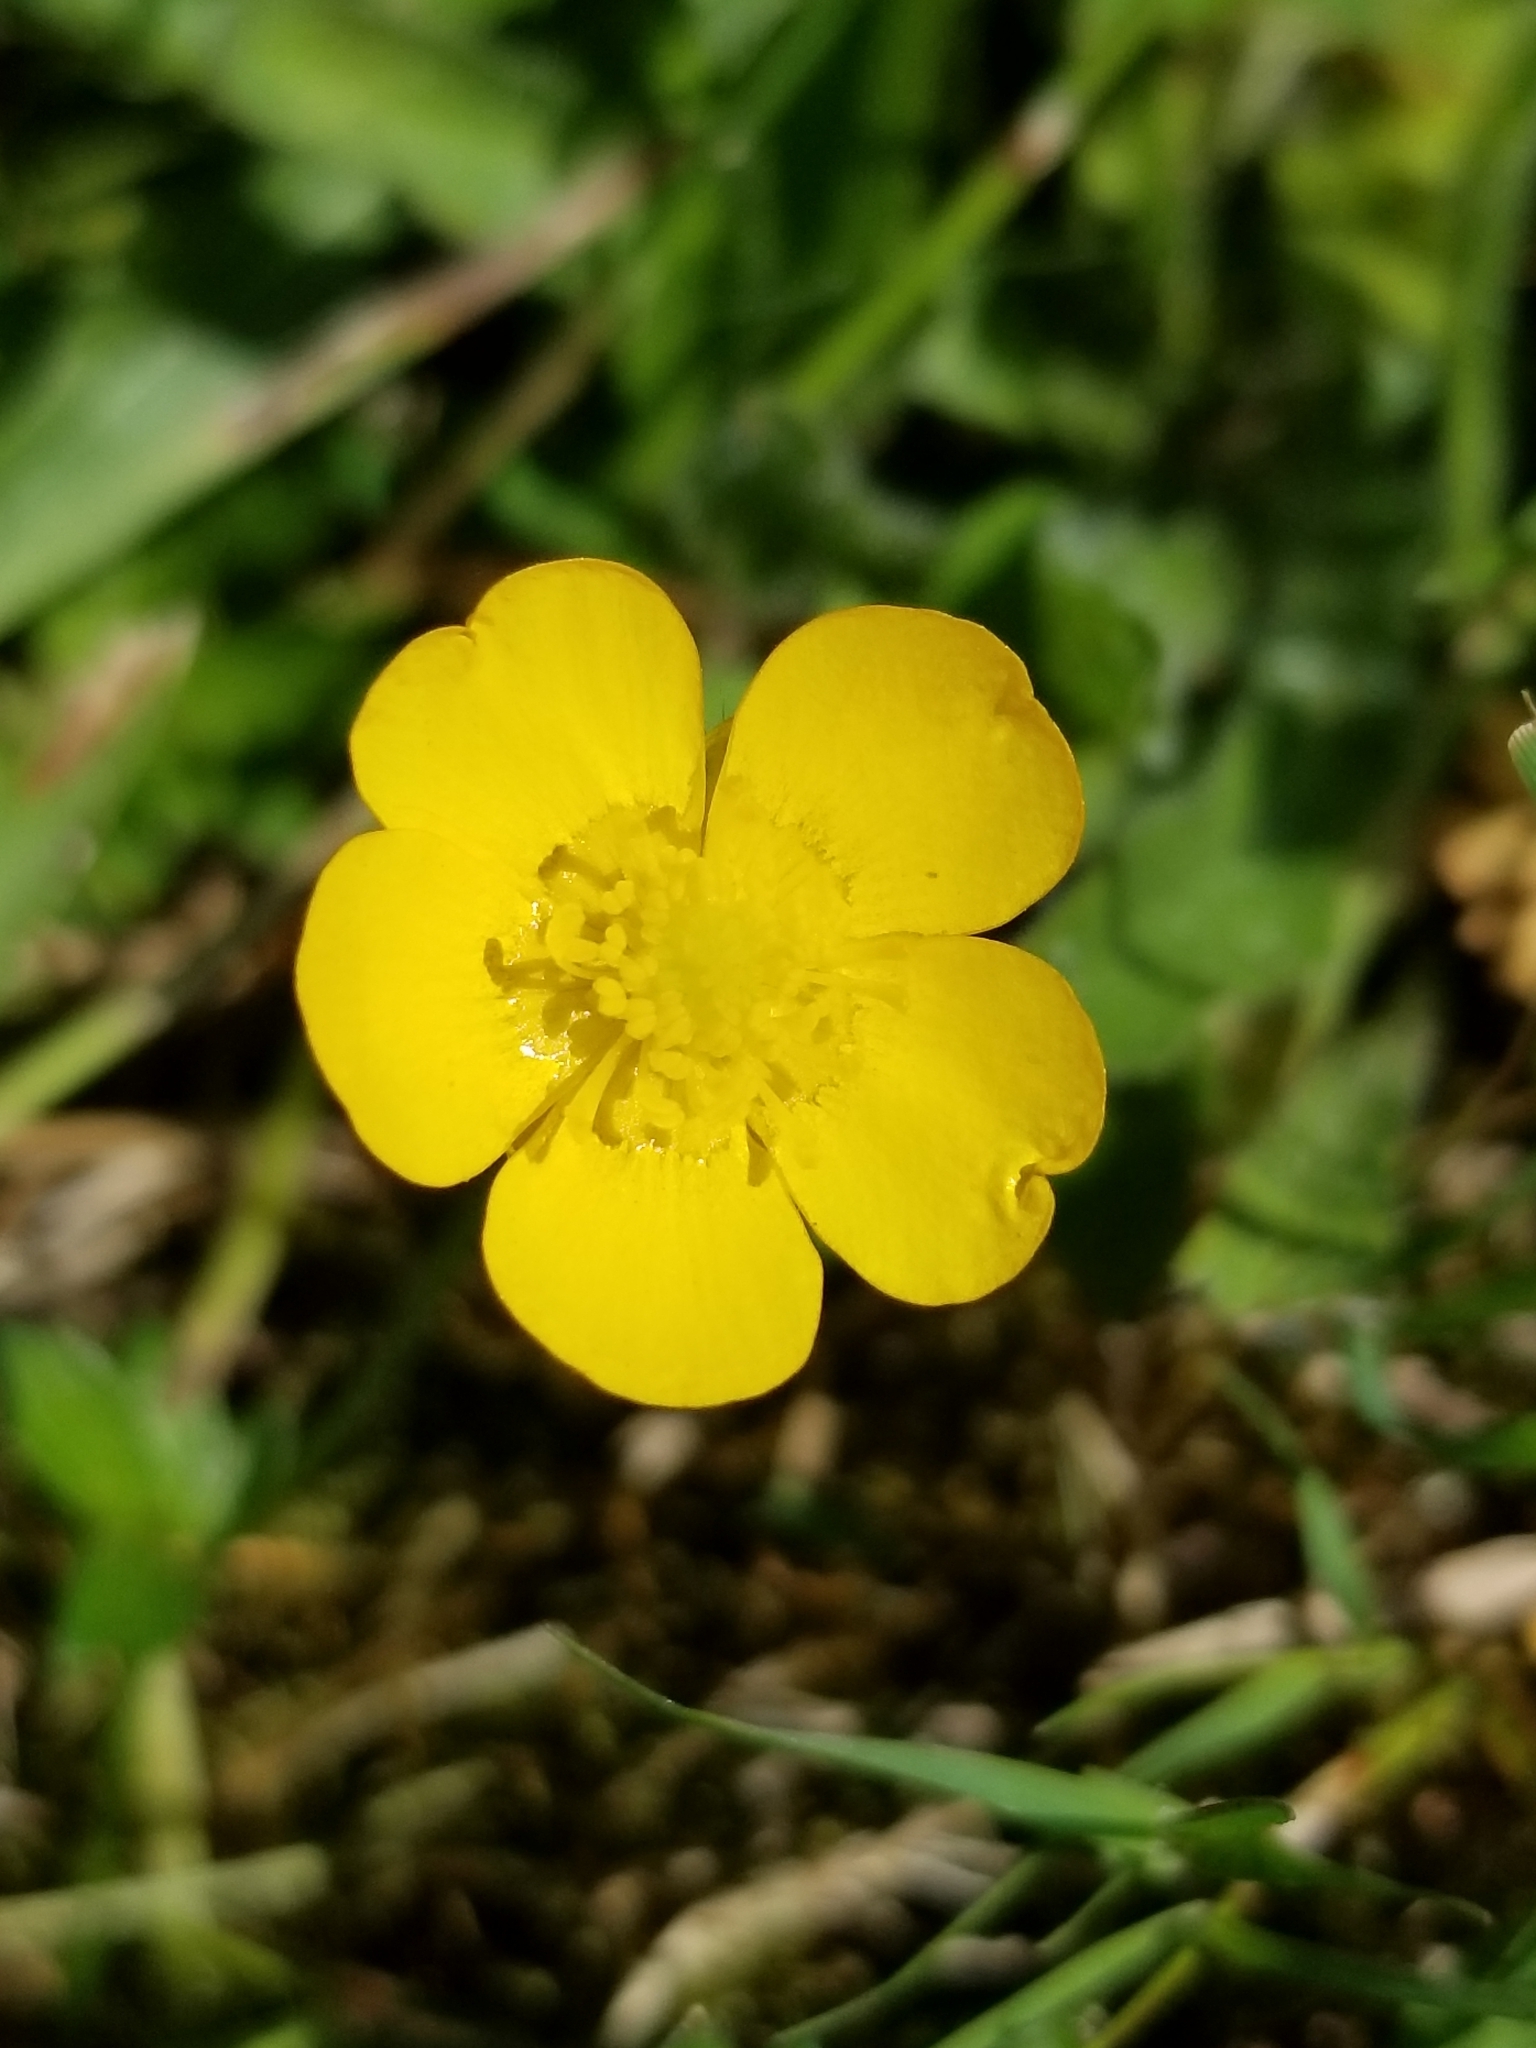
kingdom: Plantae
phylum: Tracheophyta
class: Magnoliopsida
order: Ranunculales
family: Ranunculaceae
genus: Ranunculus
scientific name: Ranunculus repens
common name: Creeping buttercup
